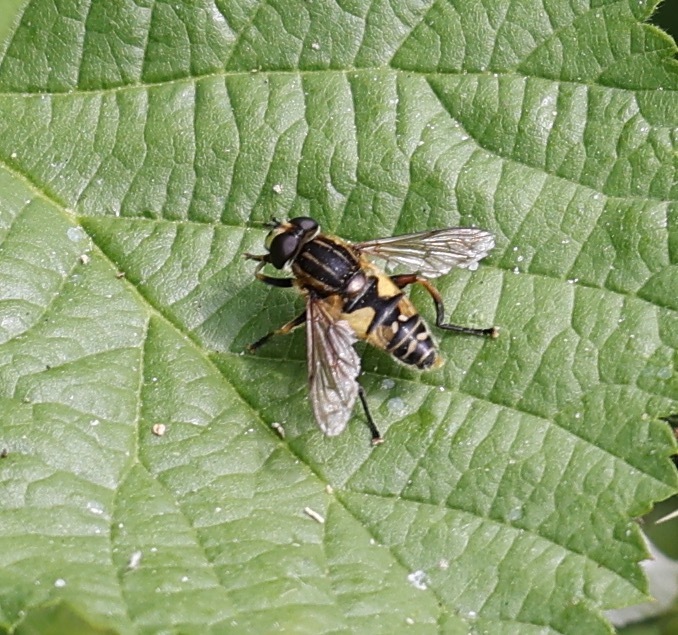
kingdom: Animalia
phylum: Arthropoda
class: Insecta
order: Diptera
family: Syrphidae
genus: Helophilus
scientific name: Helophilus pendulus
